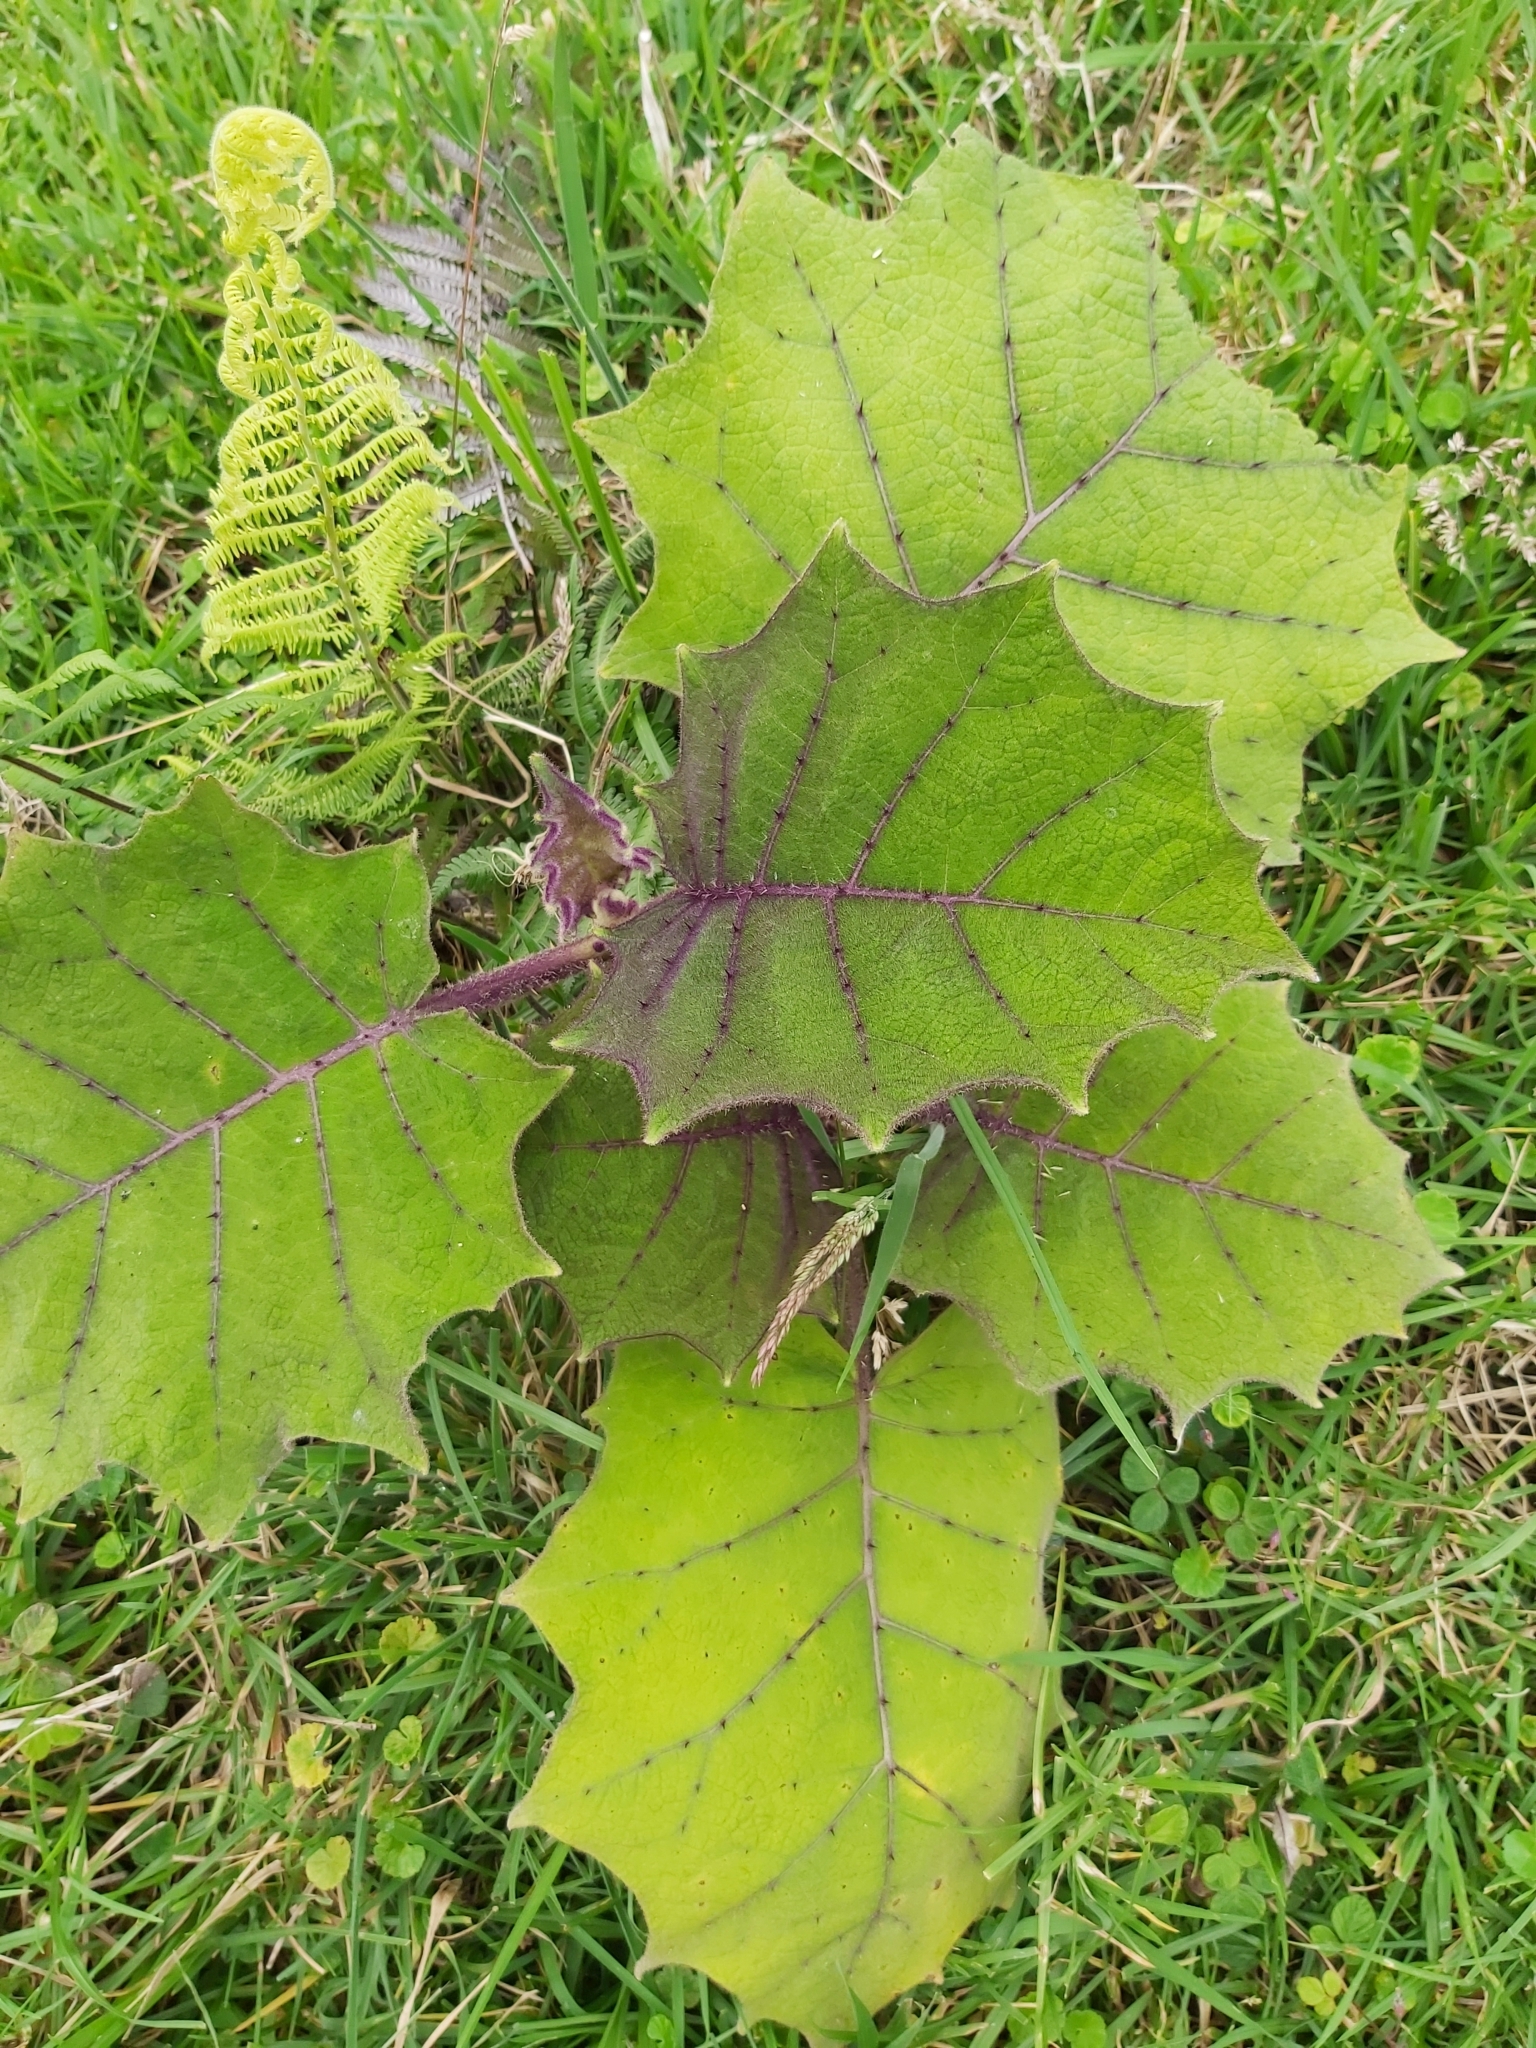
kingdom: Plantae
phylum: Tracheophyta
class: Magnoliopsida
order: Solanales
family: Solanaceae
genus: Solanum
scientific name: Solanum quitoense
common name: Quito-orange
